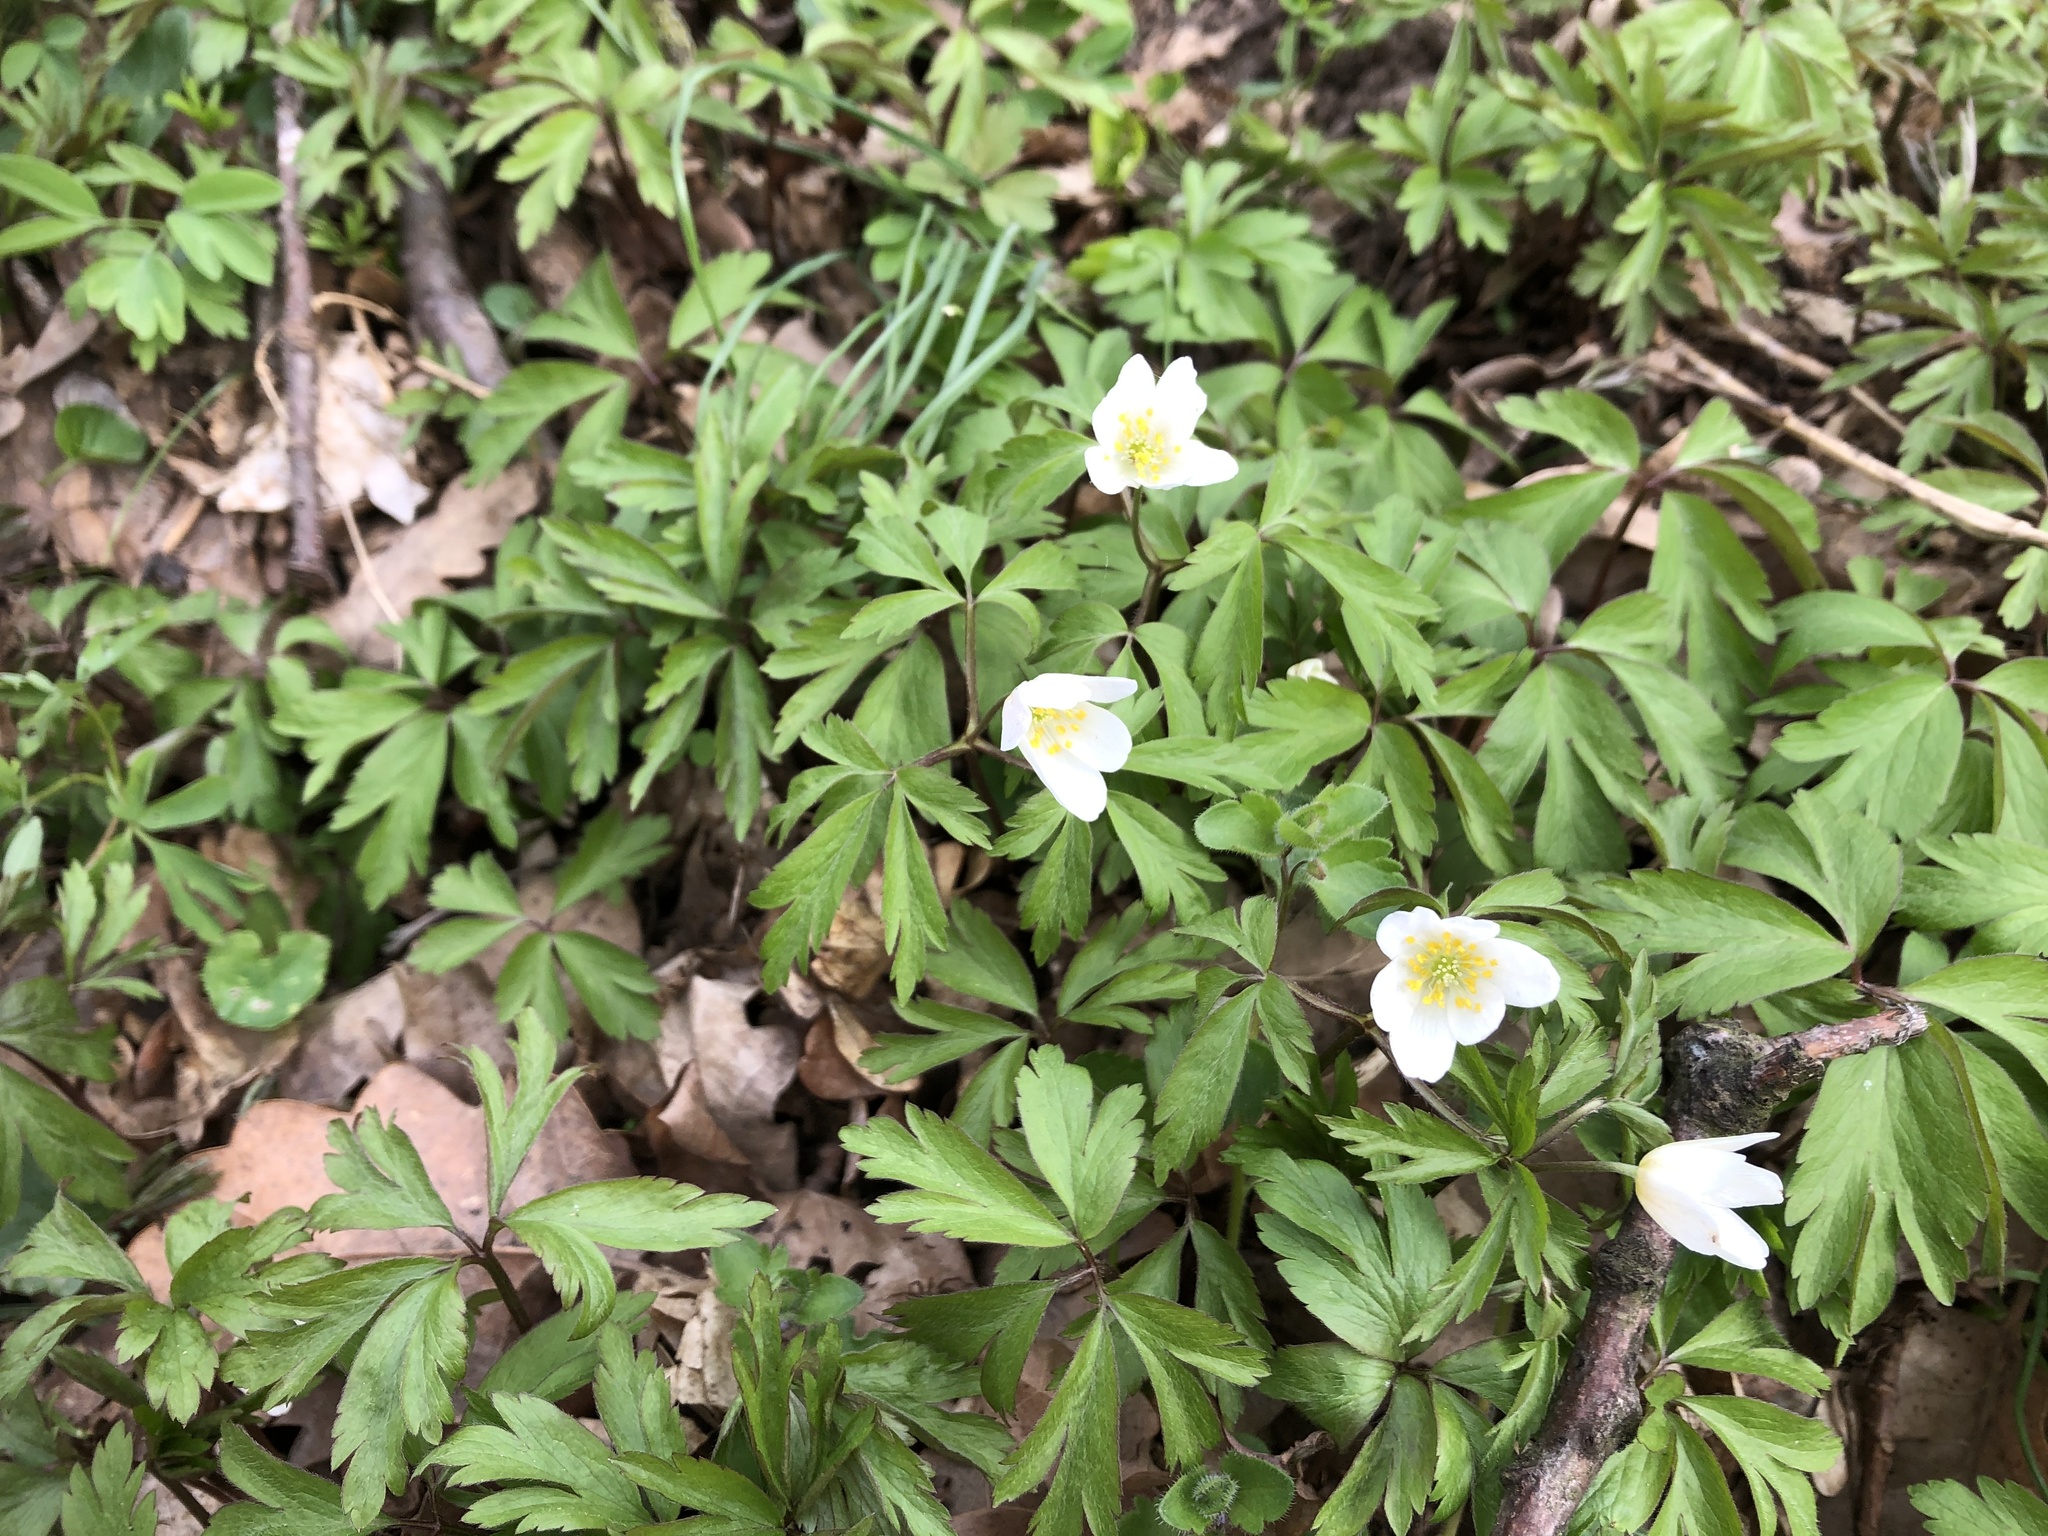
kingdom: Plantae
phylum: Tracheophyta
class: Magnoliopsida
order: Ranunculales
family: Ranunculaceae
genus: Anemone
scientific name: Anemone nemorosa
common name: Wood anemone
